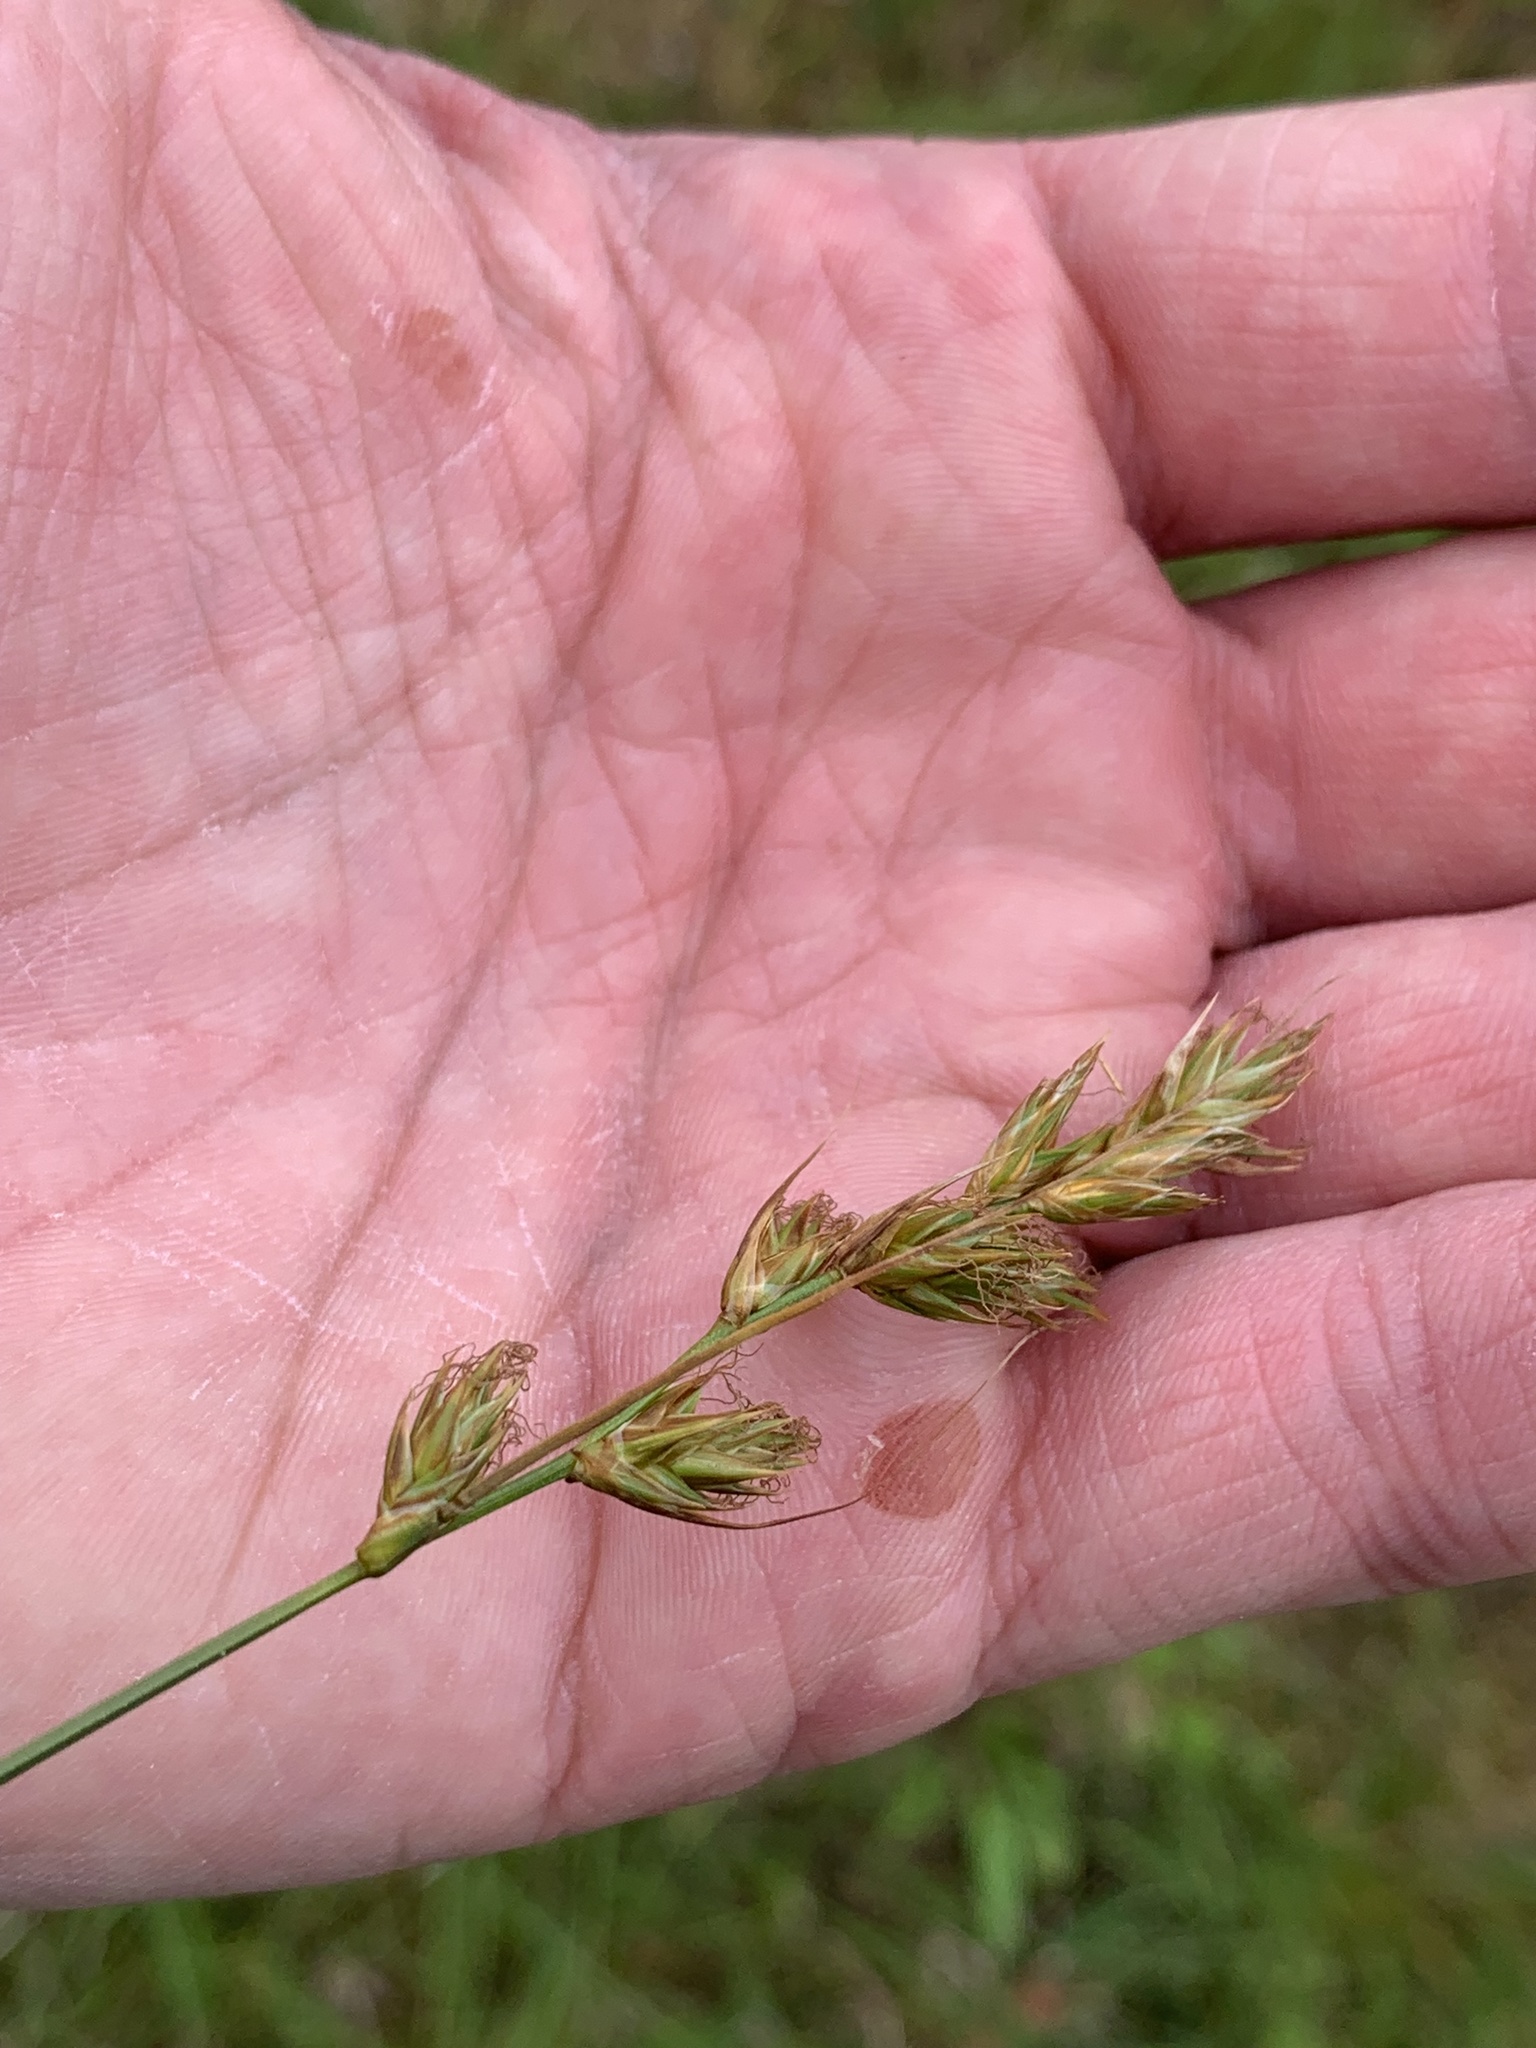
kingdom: Plantae
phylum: Tracheophyta
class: Liliopsida
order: Poales
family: Cyperaceae
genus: Carex
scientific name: Carex leporina
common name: Oval sedge
